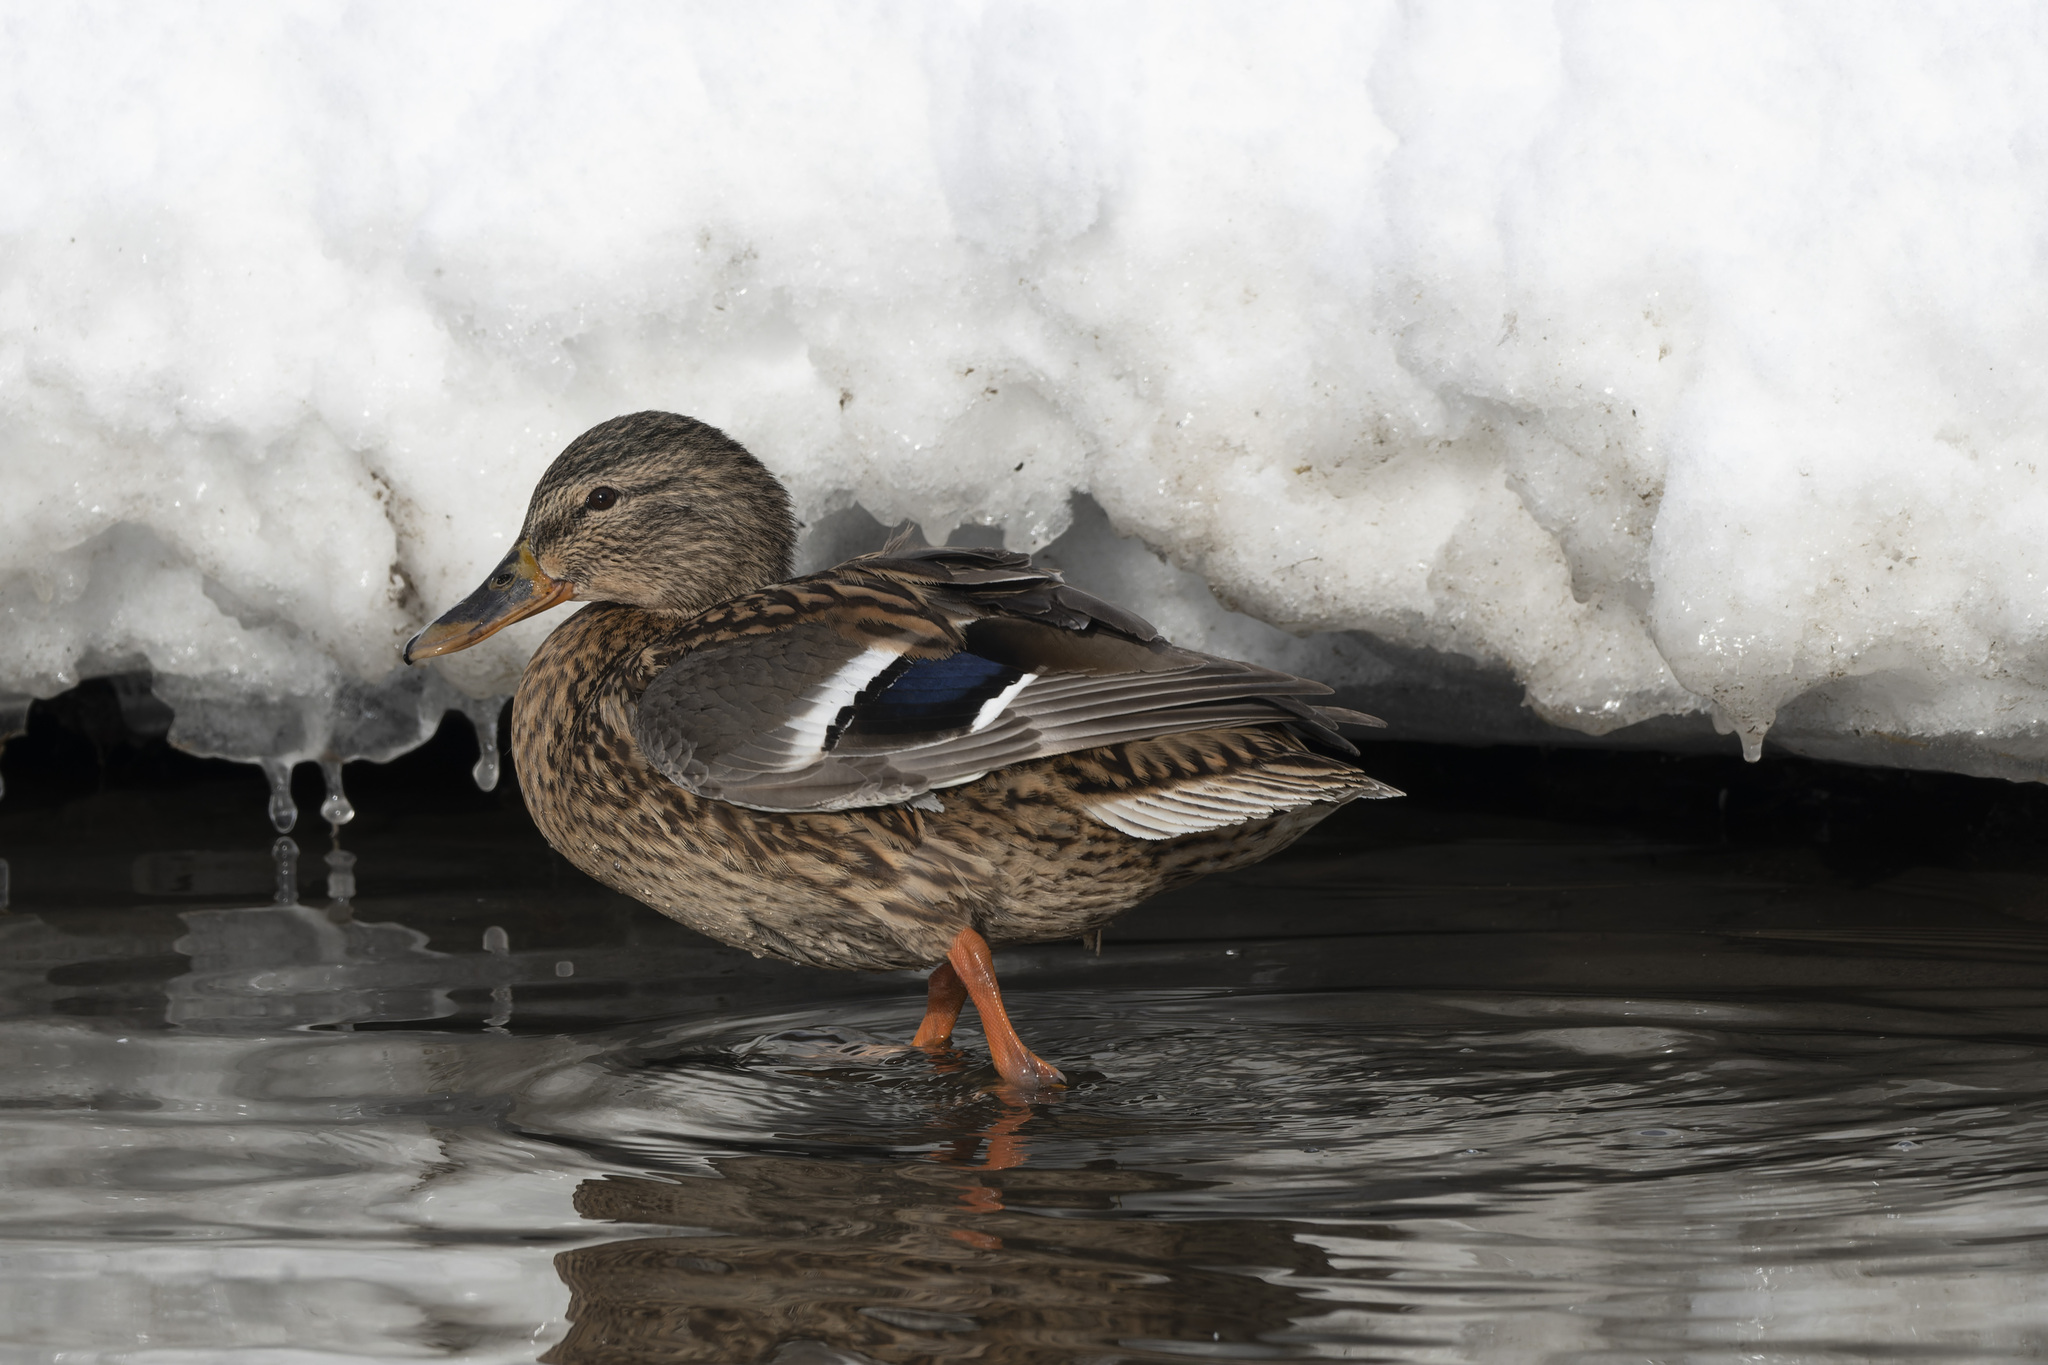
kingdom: Animalia
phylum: Chordata
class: Aves
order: Anseriformes
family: Anatidae
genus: Anas
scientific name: Anas platyrhynchos
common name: Mallard
